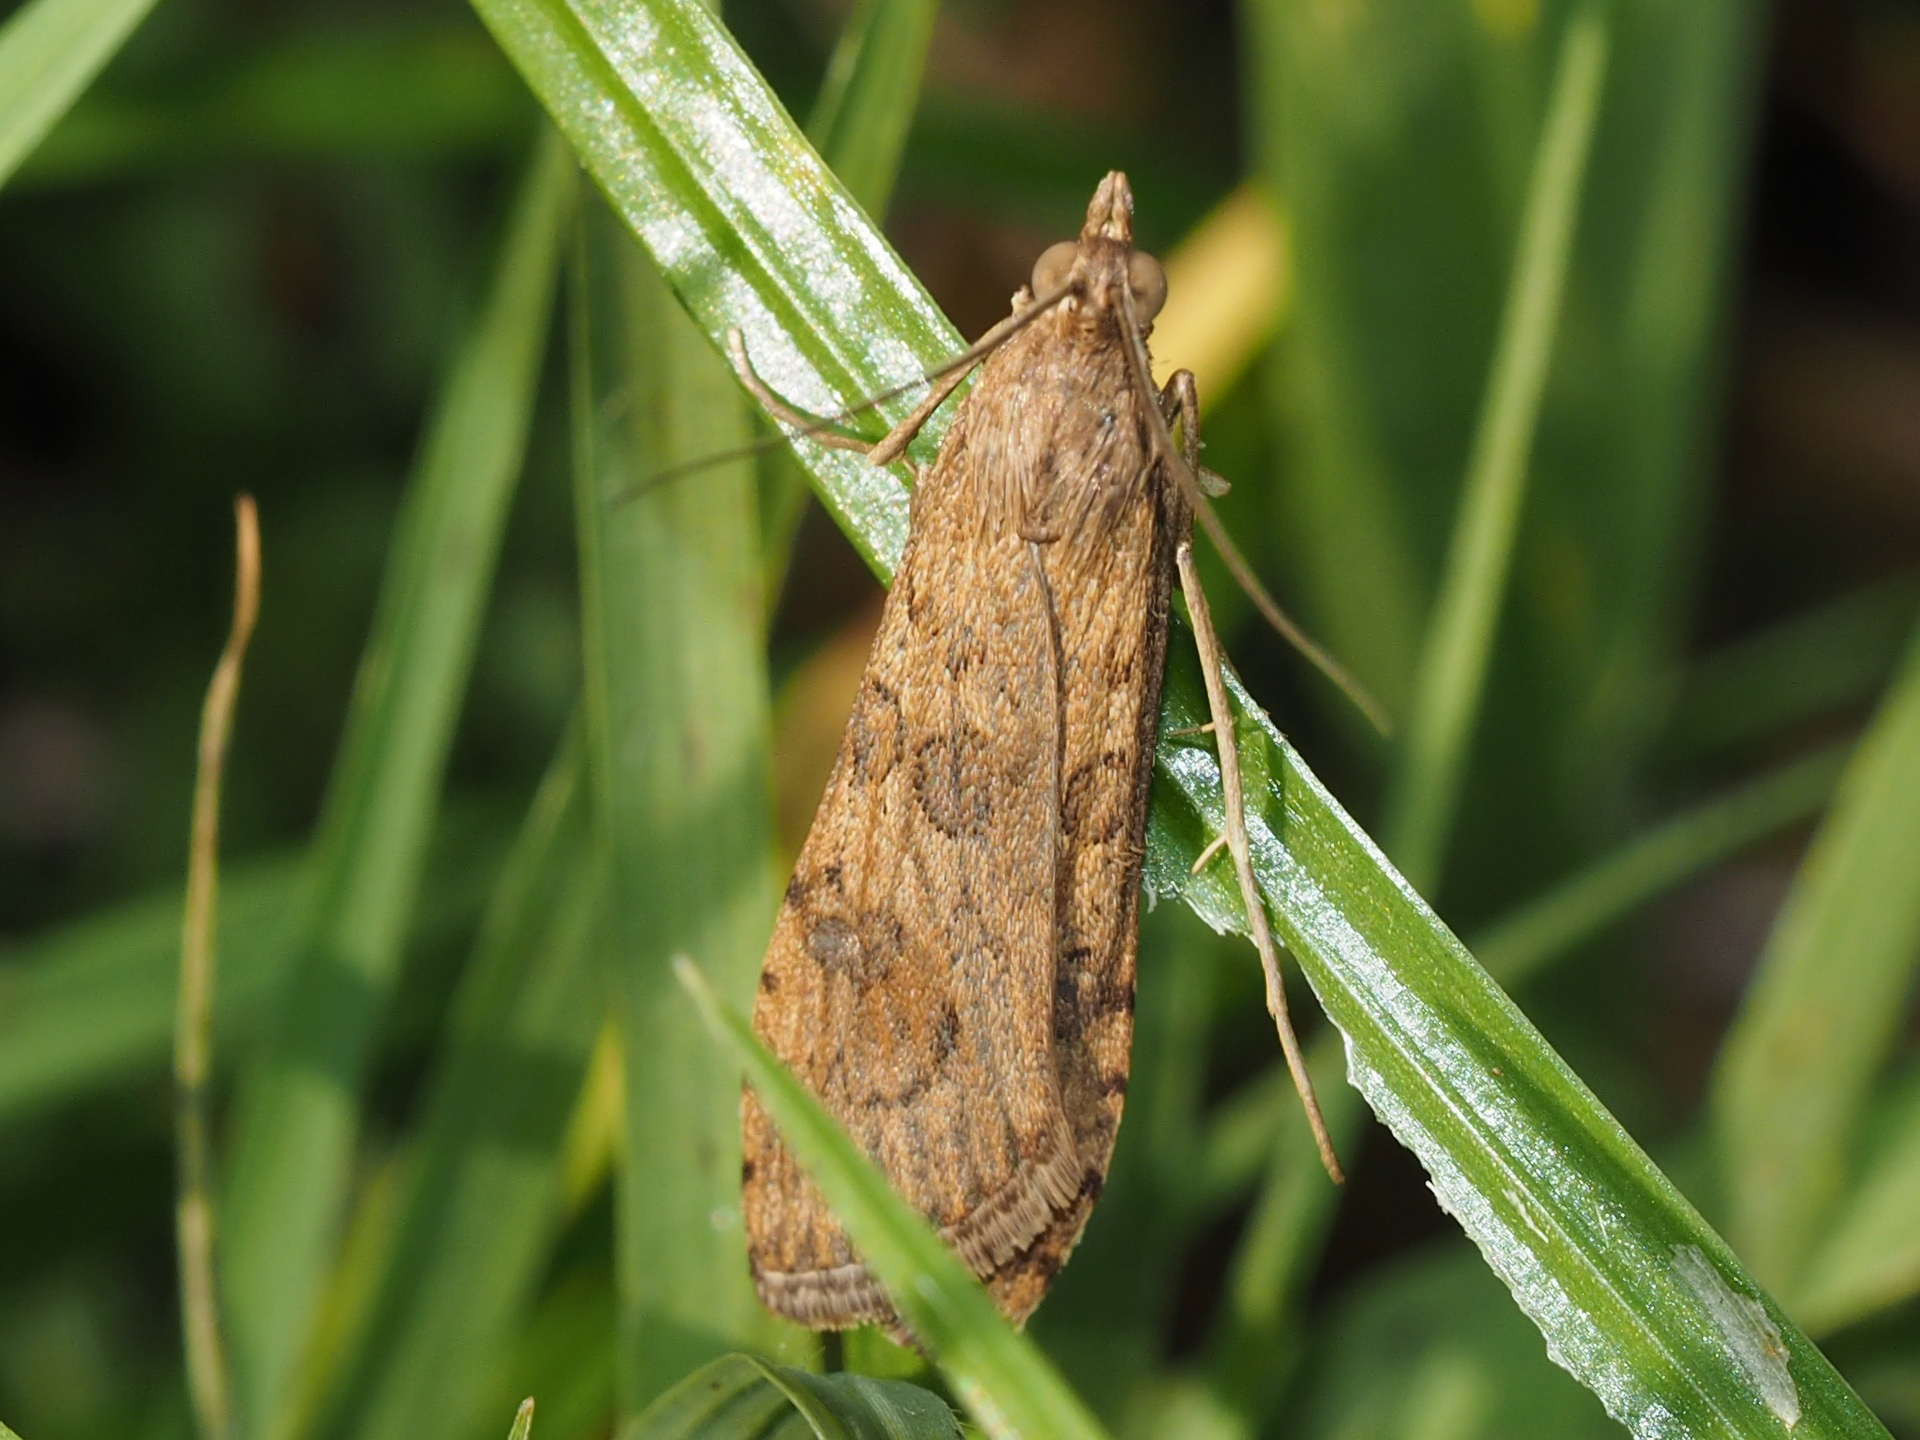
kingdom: Animalia
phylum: Arthropoda
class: Insecta
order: Lepidoptera
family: Crambidae
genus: Nomophila
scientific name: Nomophila noctuella
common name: Rush veneer
